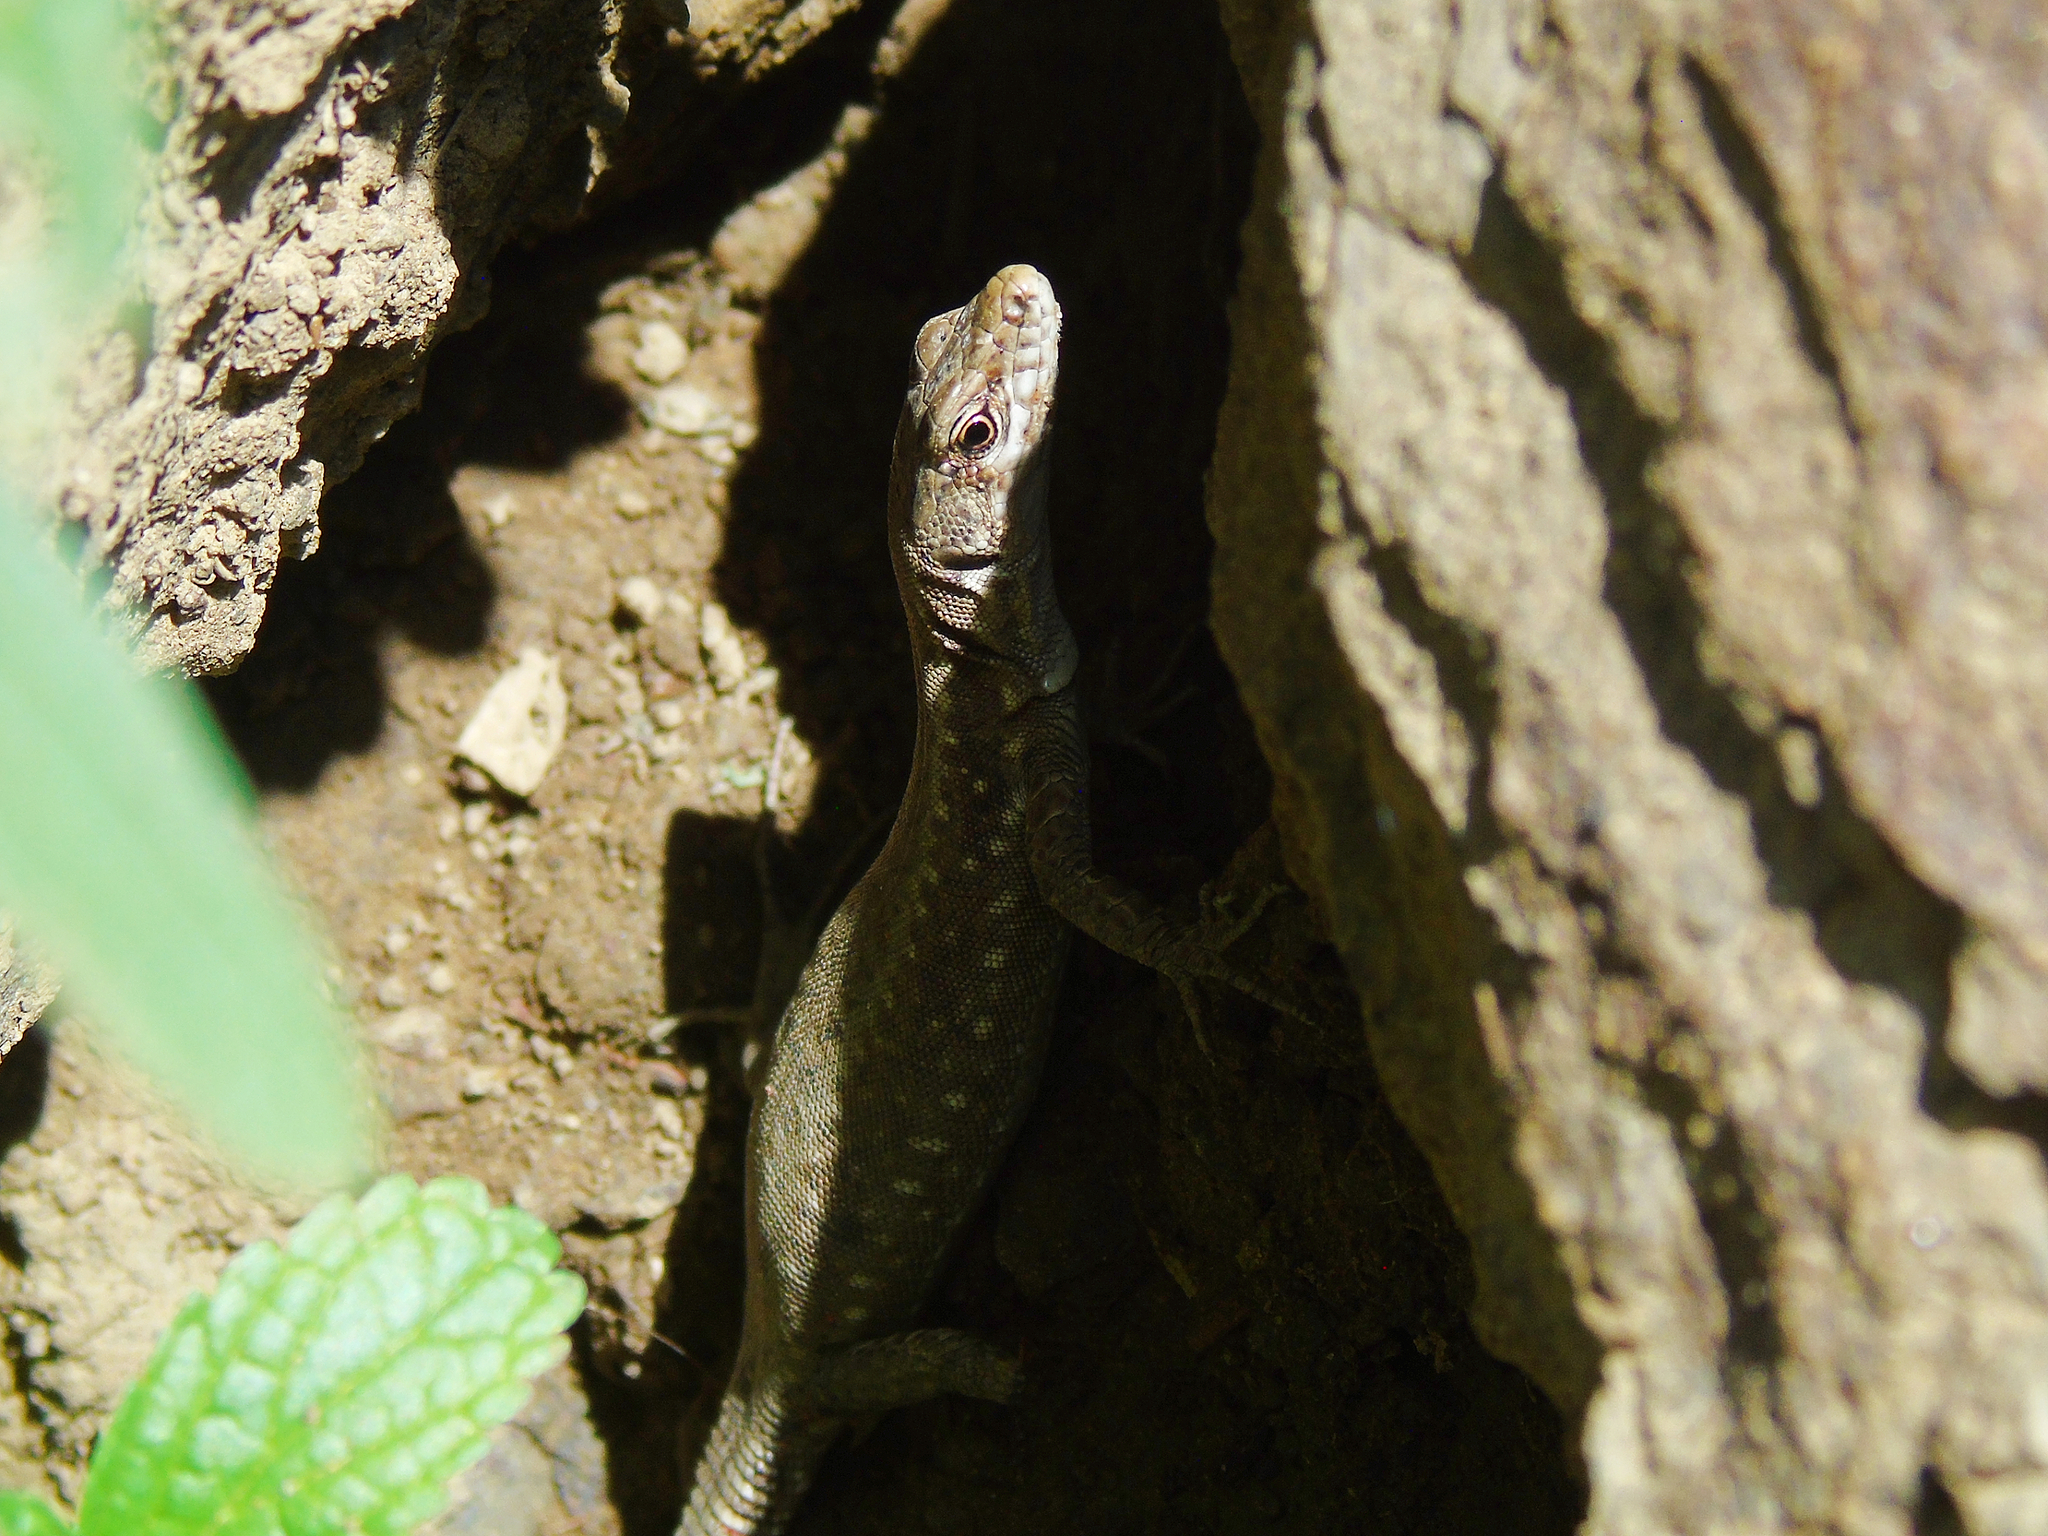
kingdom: Animalia
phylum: Chordata
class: Squamata
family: Lacertidae
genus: Darevskia
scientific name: Darevskia rudis
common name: Spiny-tailed lizard
